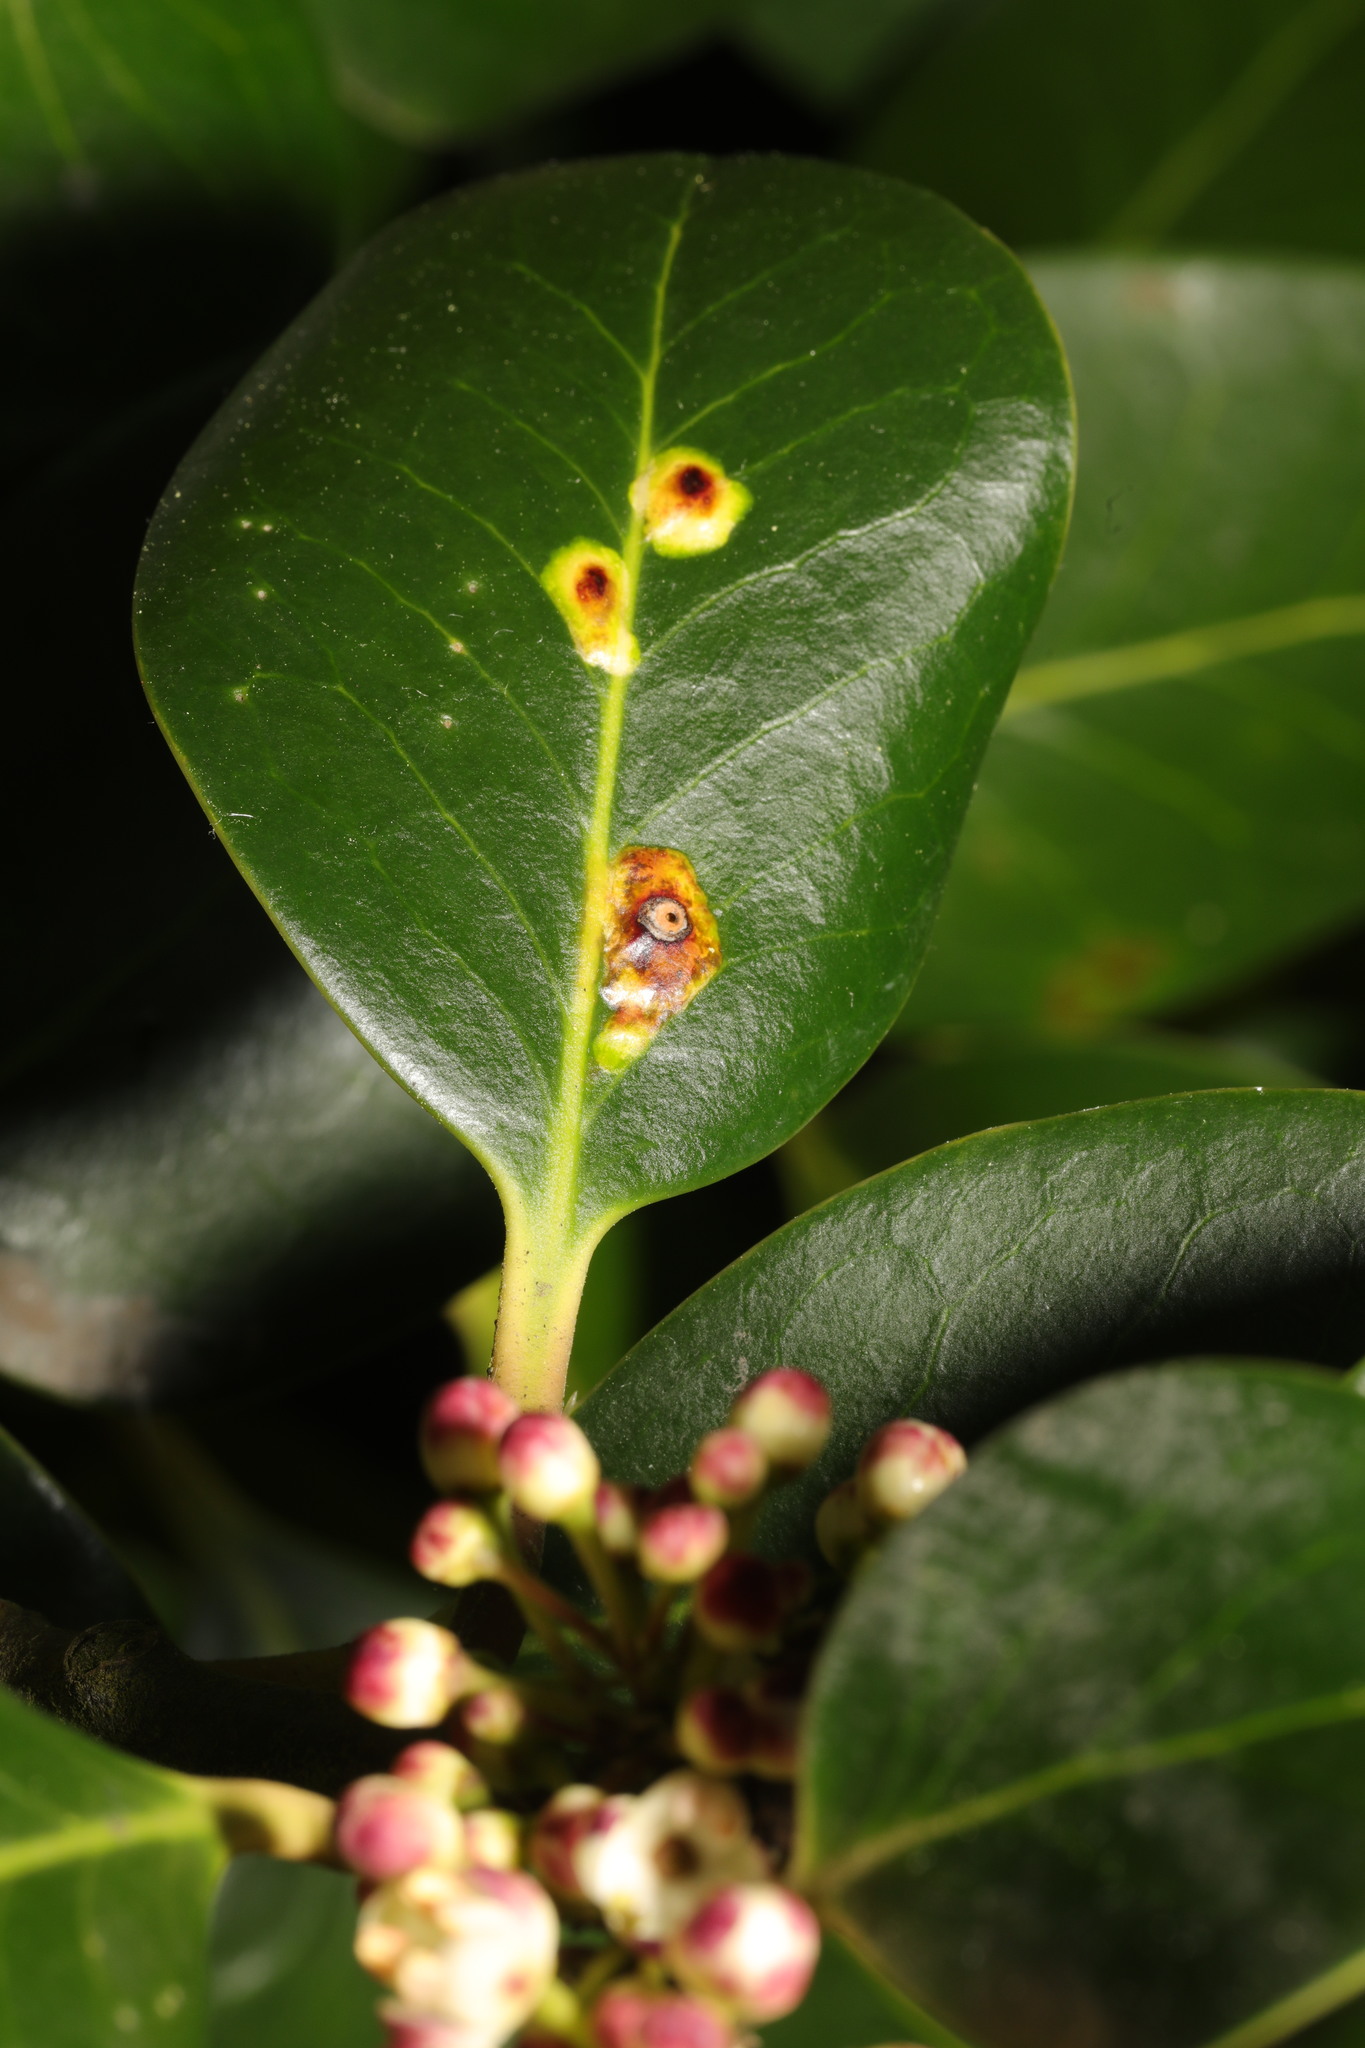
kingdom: Animalia
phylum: Arthropoda
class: Insecta
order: Diptera
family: Agromyzidae
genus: Phytomyza
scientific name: Phytomyza ilicis
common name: Holly leafminer
